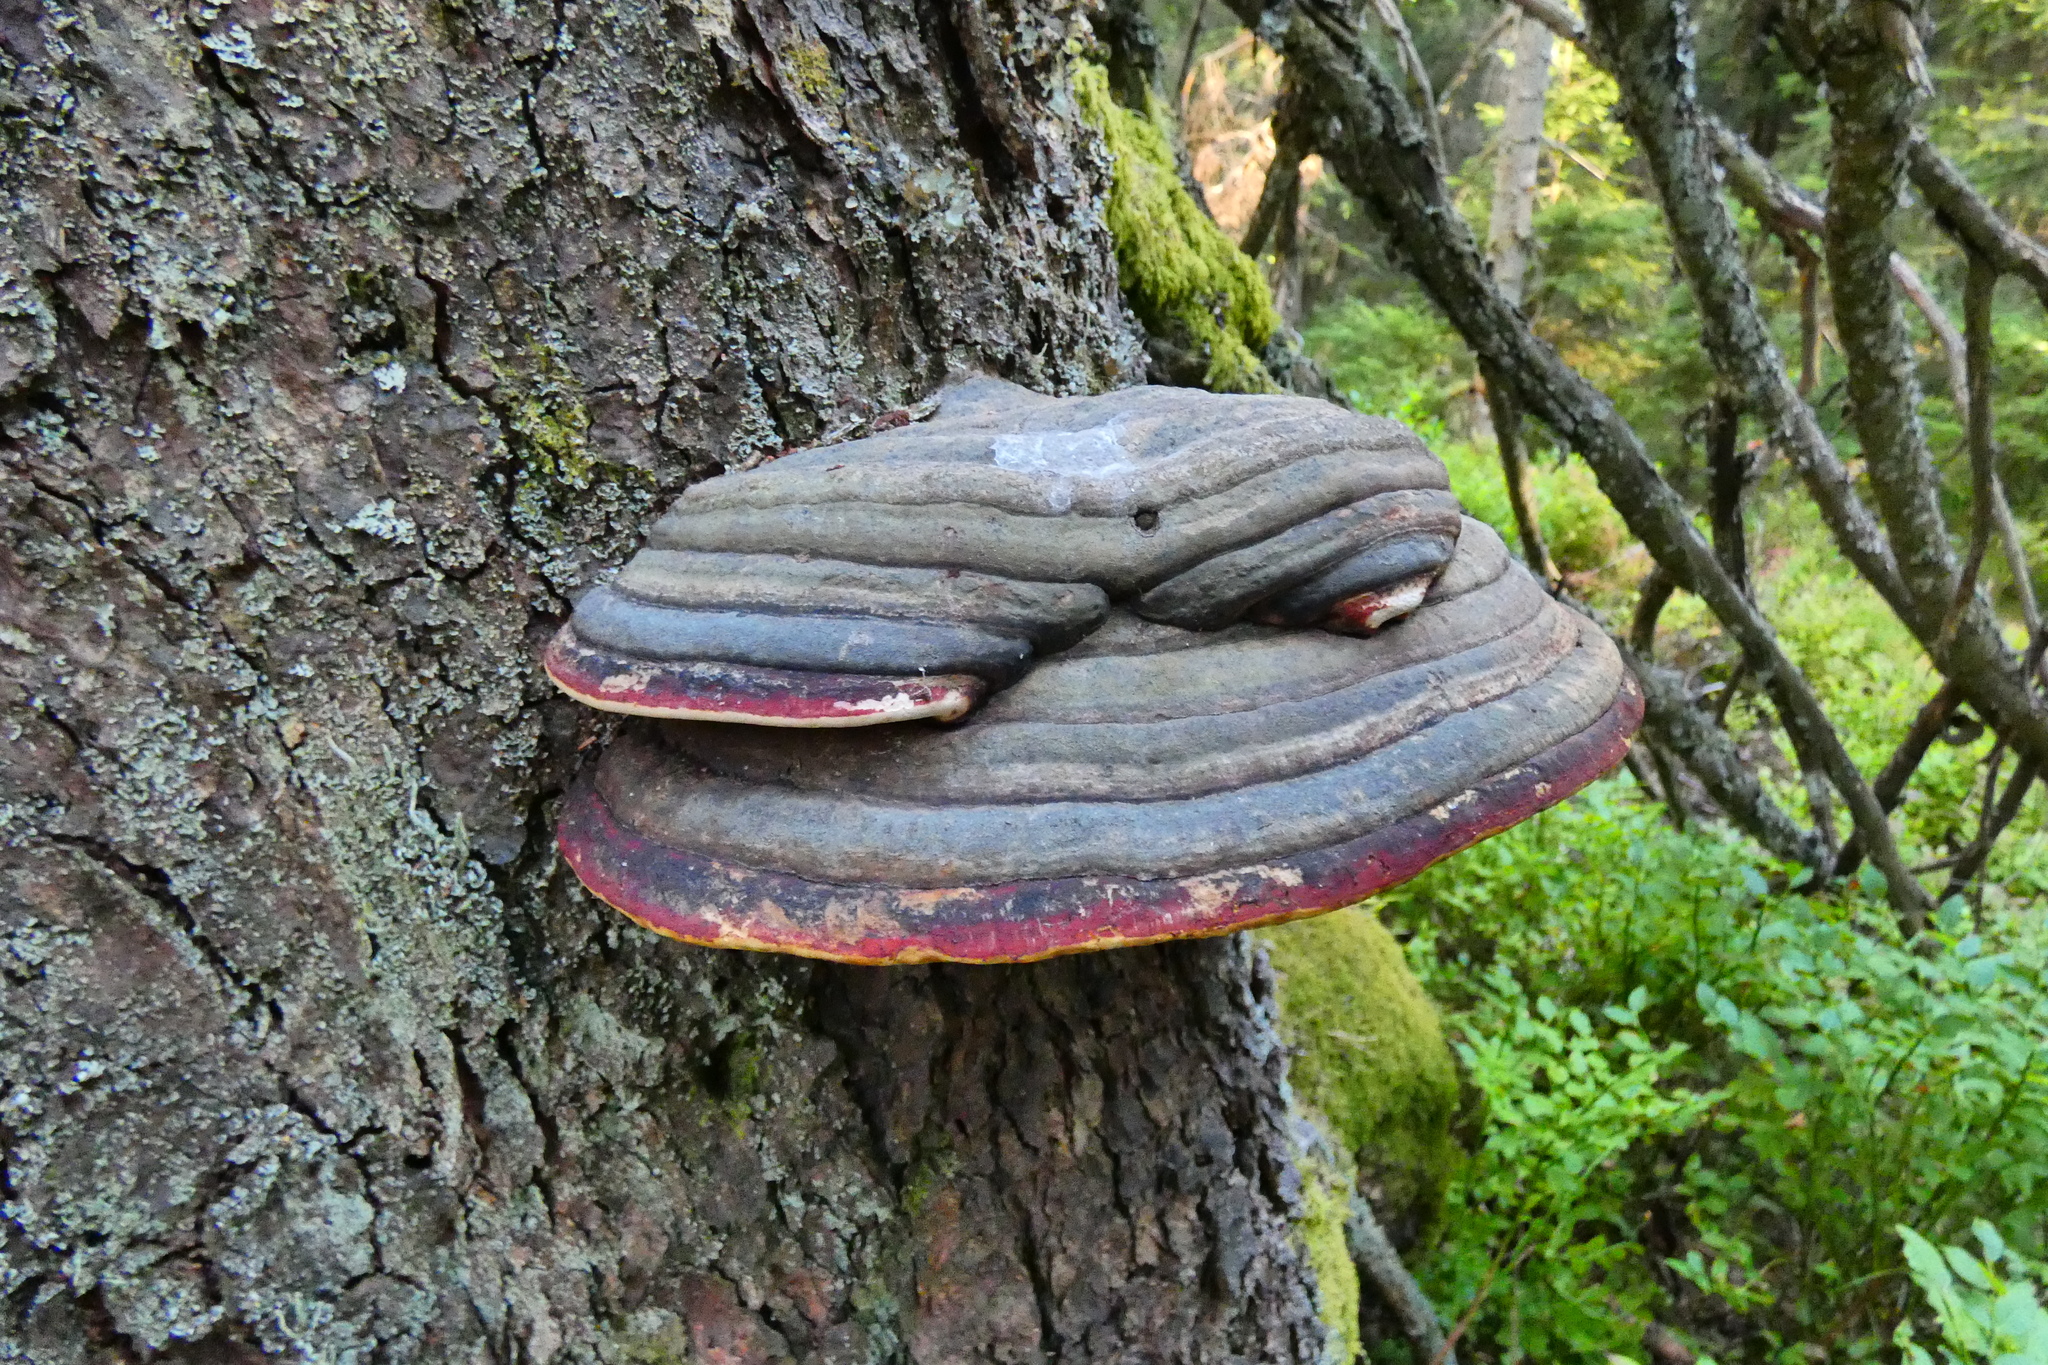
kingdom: Fungi
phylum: Basidiomycota
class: Agaricomycetes
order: Polyporales
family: Fomitopsidaceae
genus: Fomitopsis
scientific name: Fomitopsis pinicola
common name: Red-belted bracket
